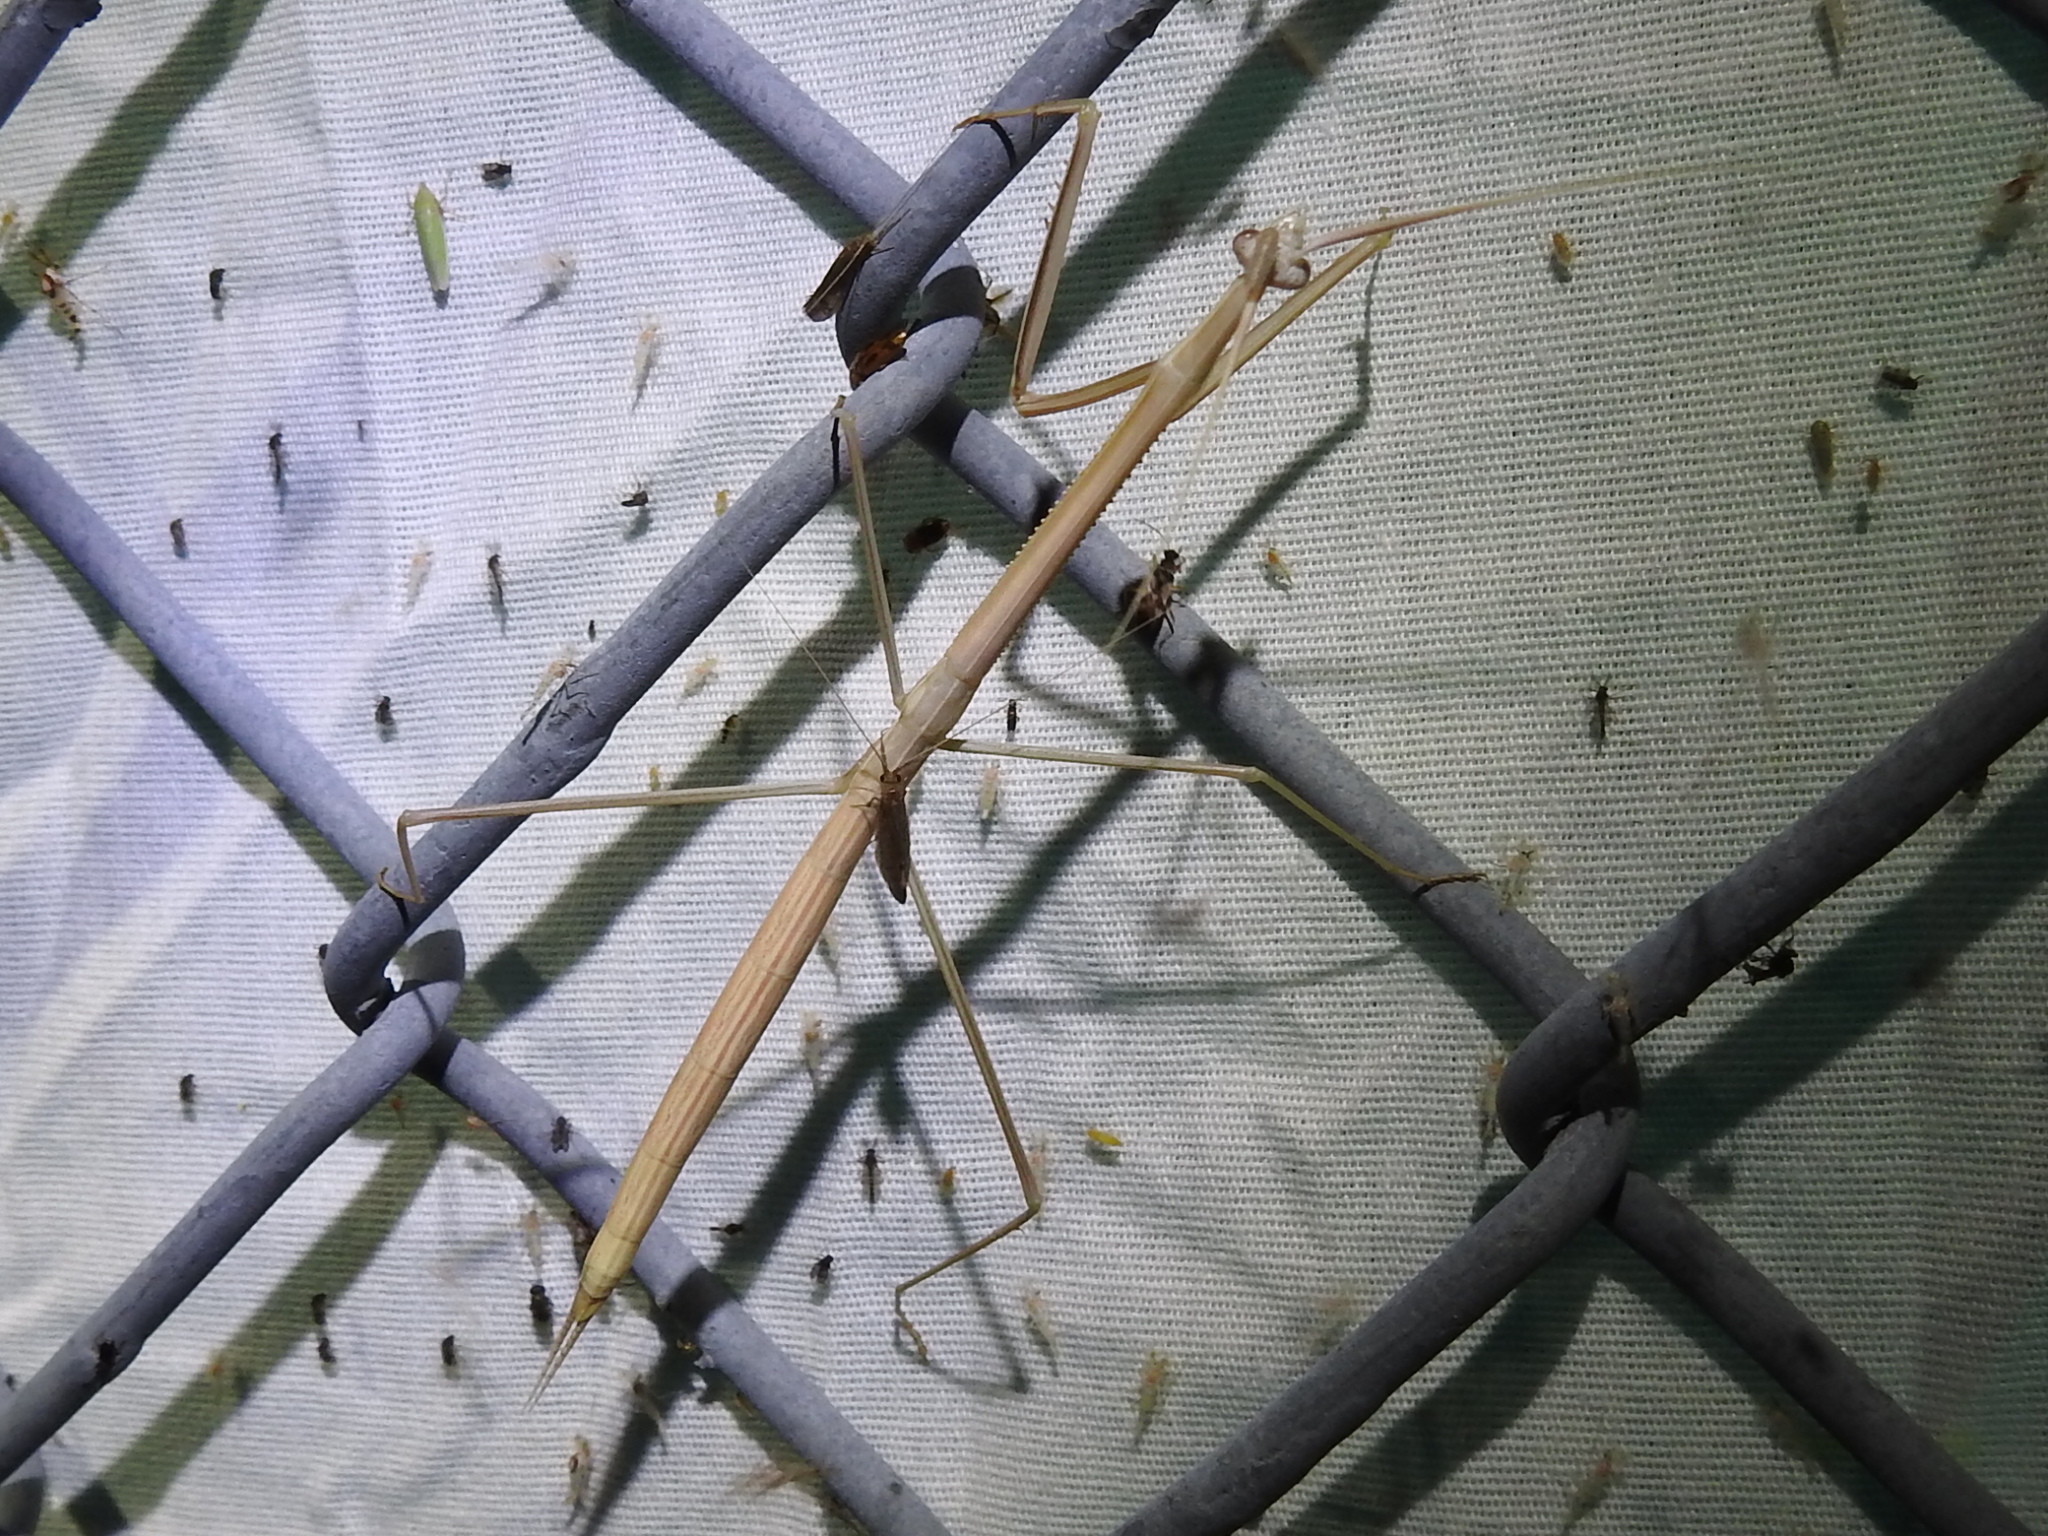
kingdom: Animalia
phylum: Arthropoda
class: Insecta
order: Mantodea
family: Coptopterygidae
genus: Brunneria
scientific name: Brunneria borealis
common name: Mantis
